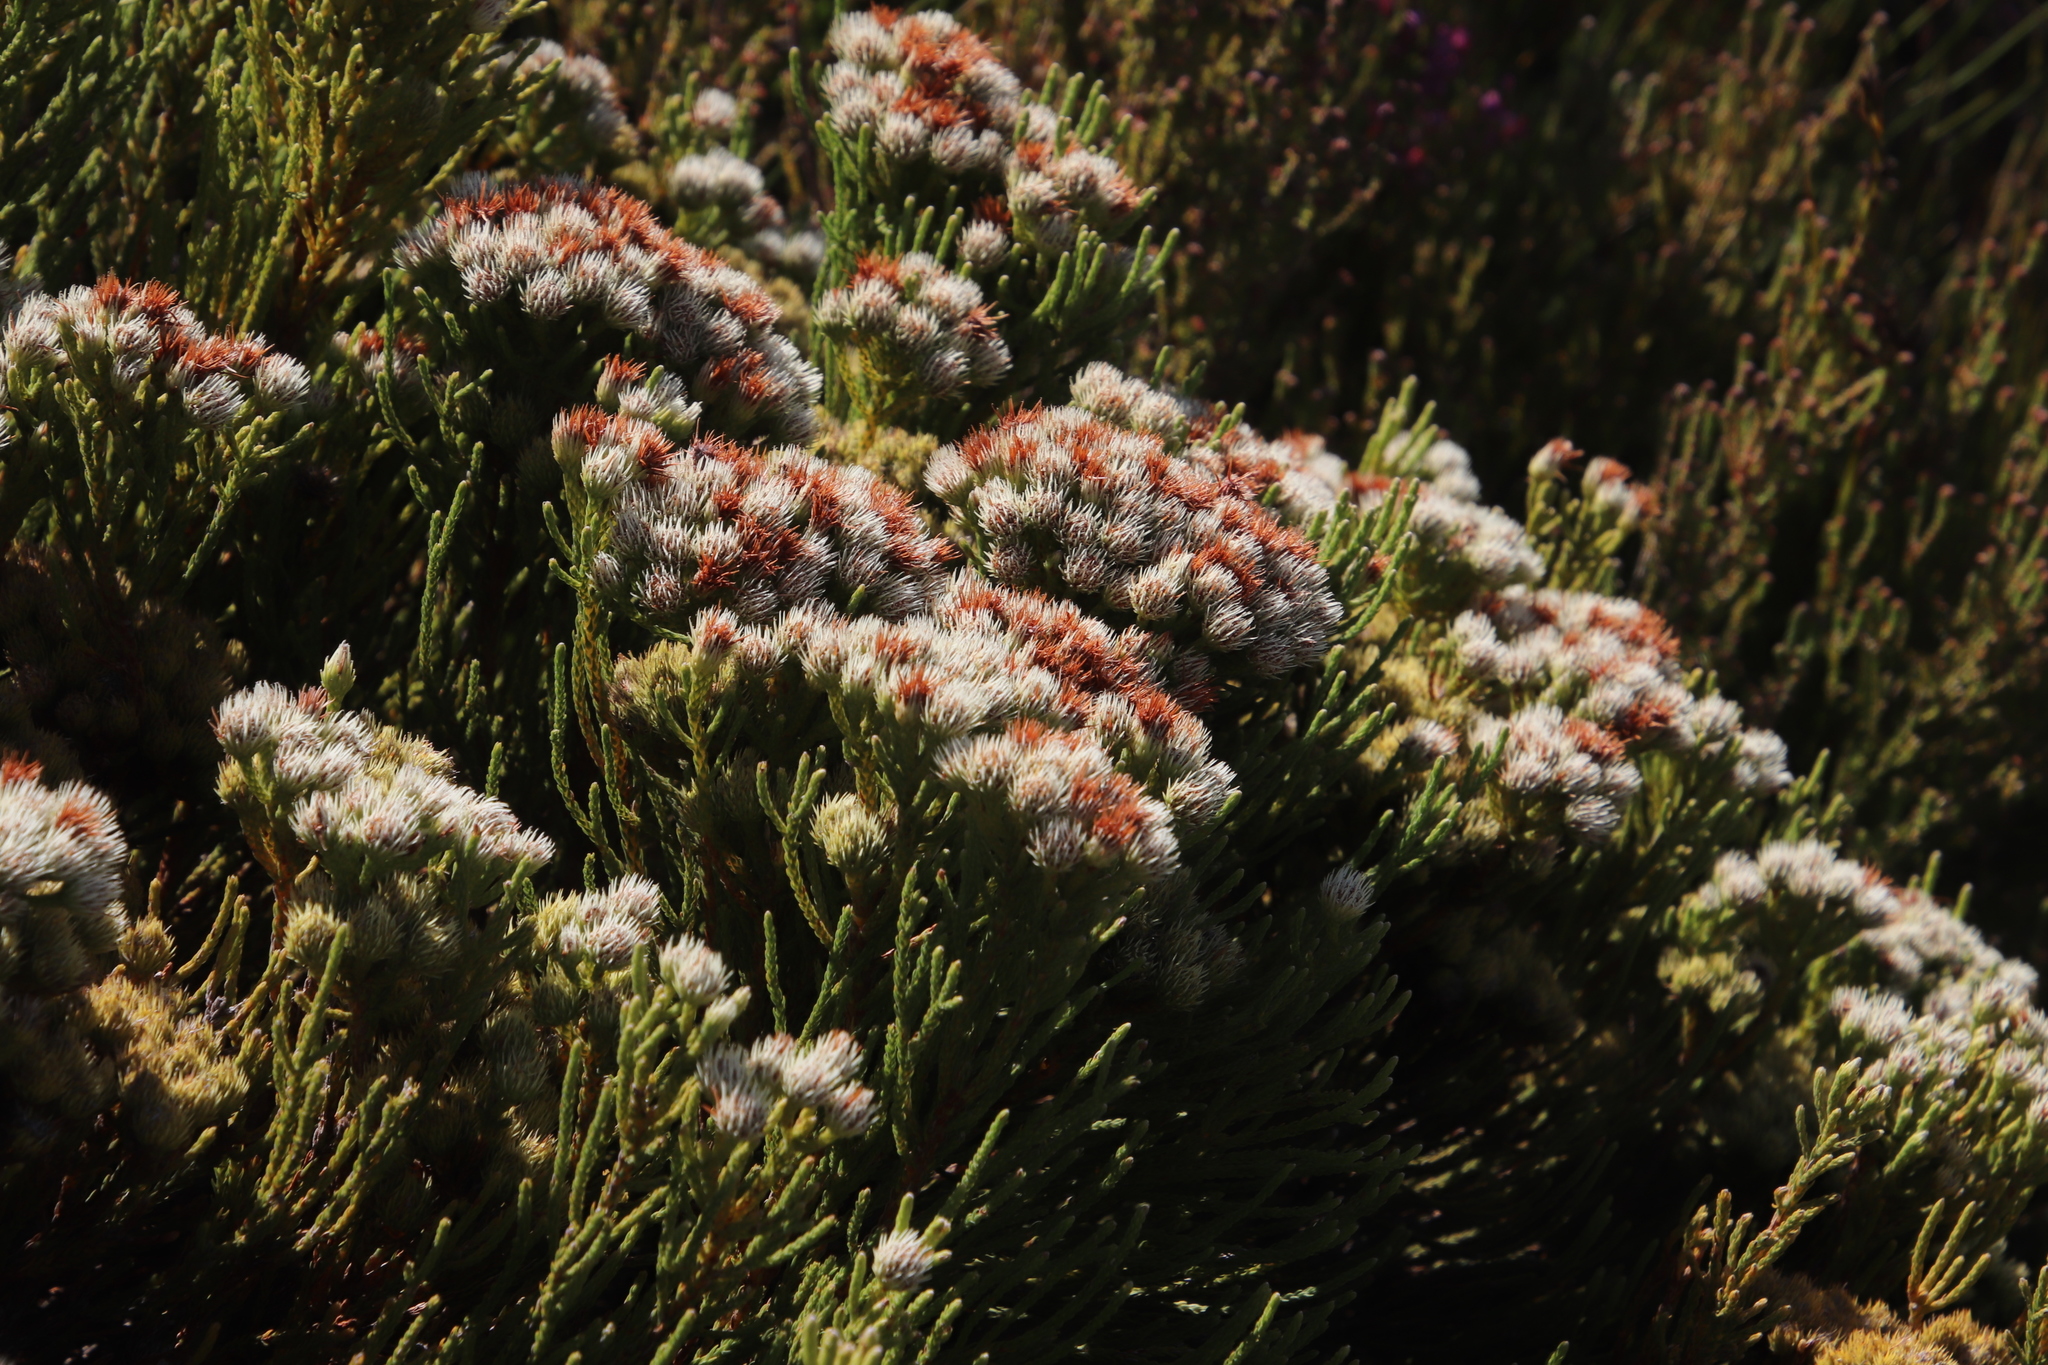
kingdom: Plantae
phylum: Tracheophyta
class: Magnoliopsida
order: Bruniales
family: Bruniaceae
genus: Brunia
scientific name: Brunia paleacea
